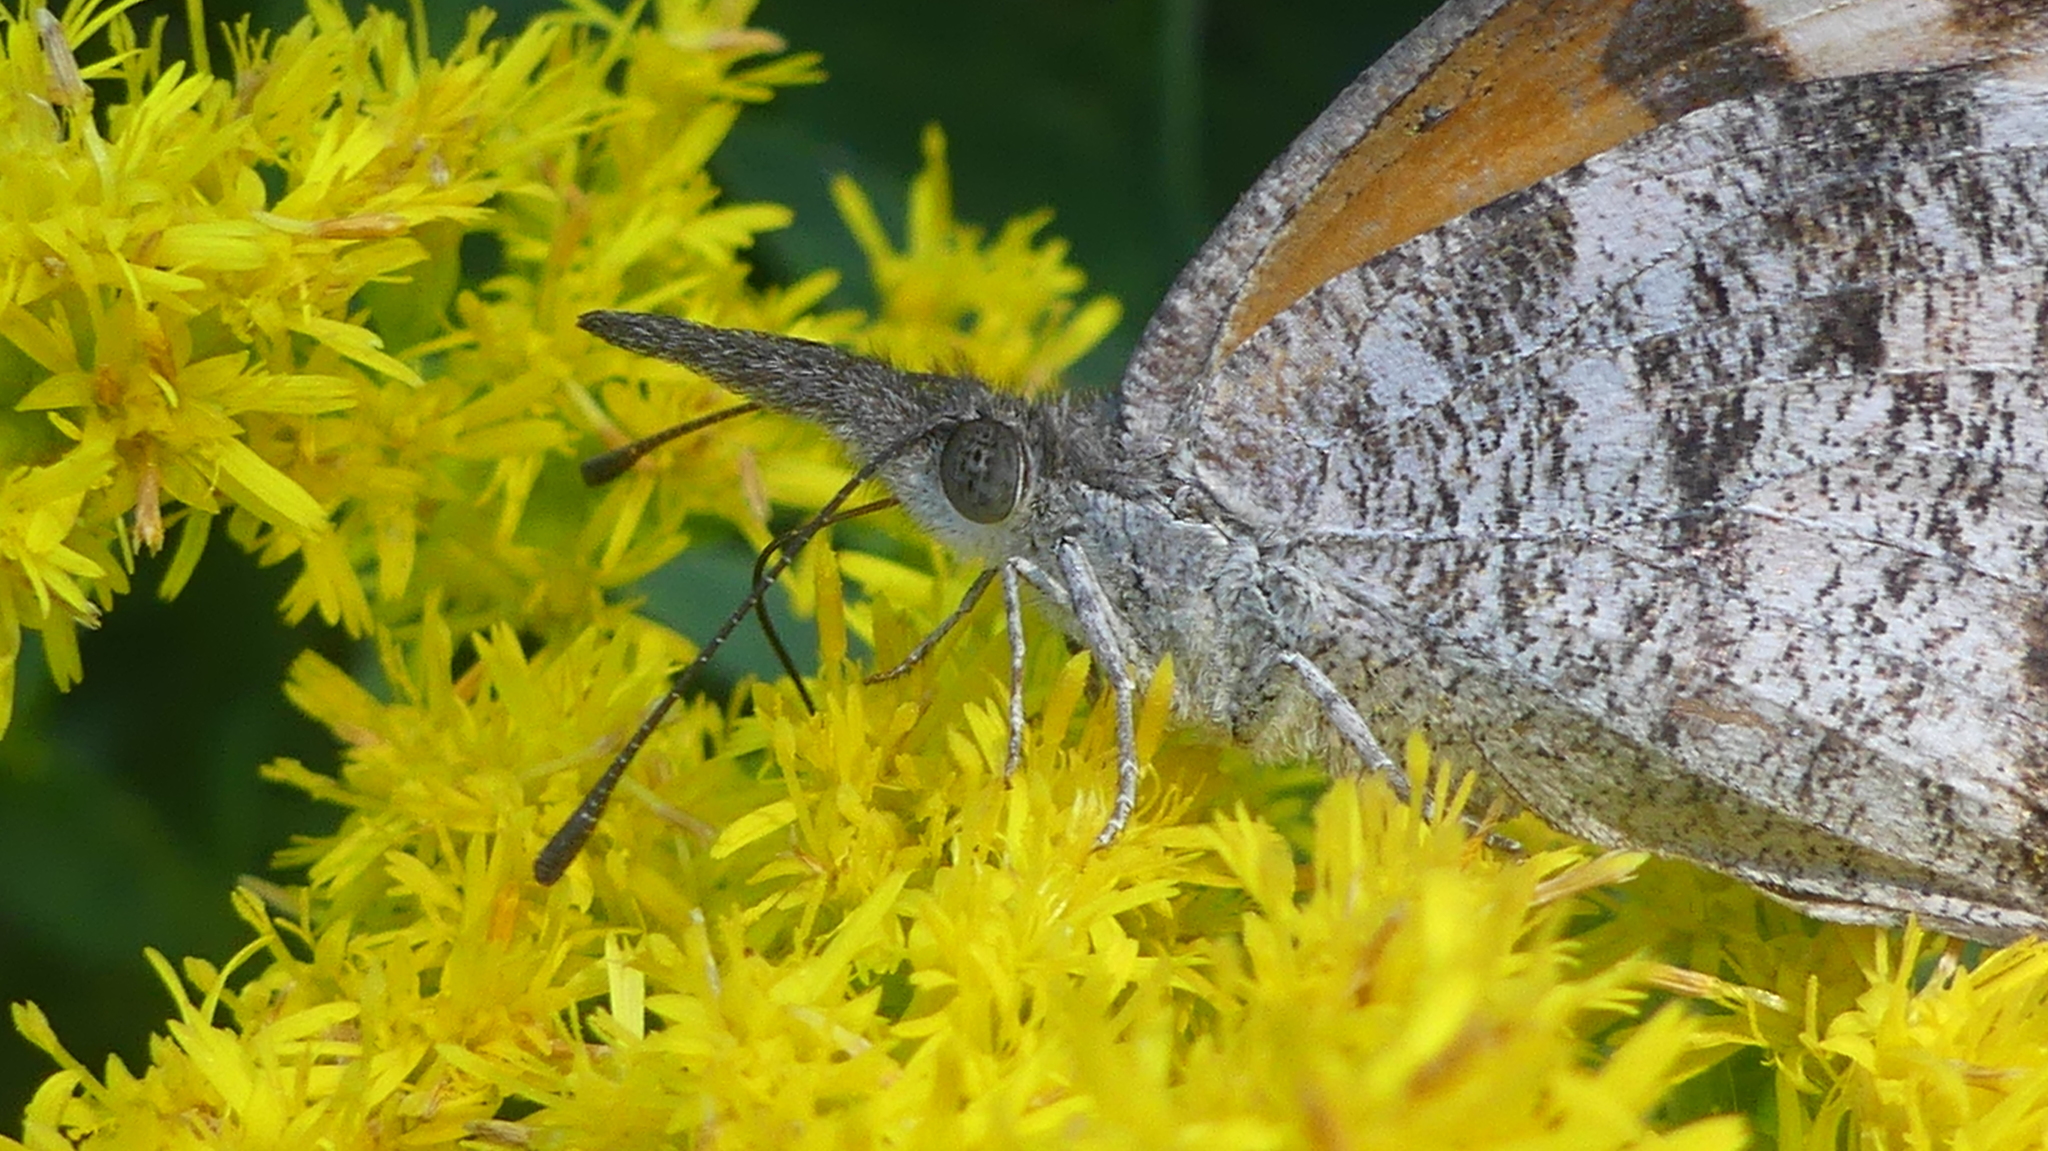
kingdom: Animalia
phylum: Arthropoda
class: Insecta
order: Lepidoptera
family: Nymphalidae
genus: Libytheana
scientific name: Libytheana carinenta
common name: American snout
